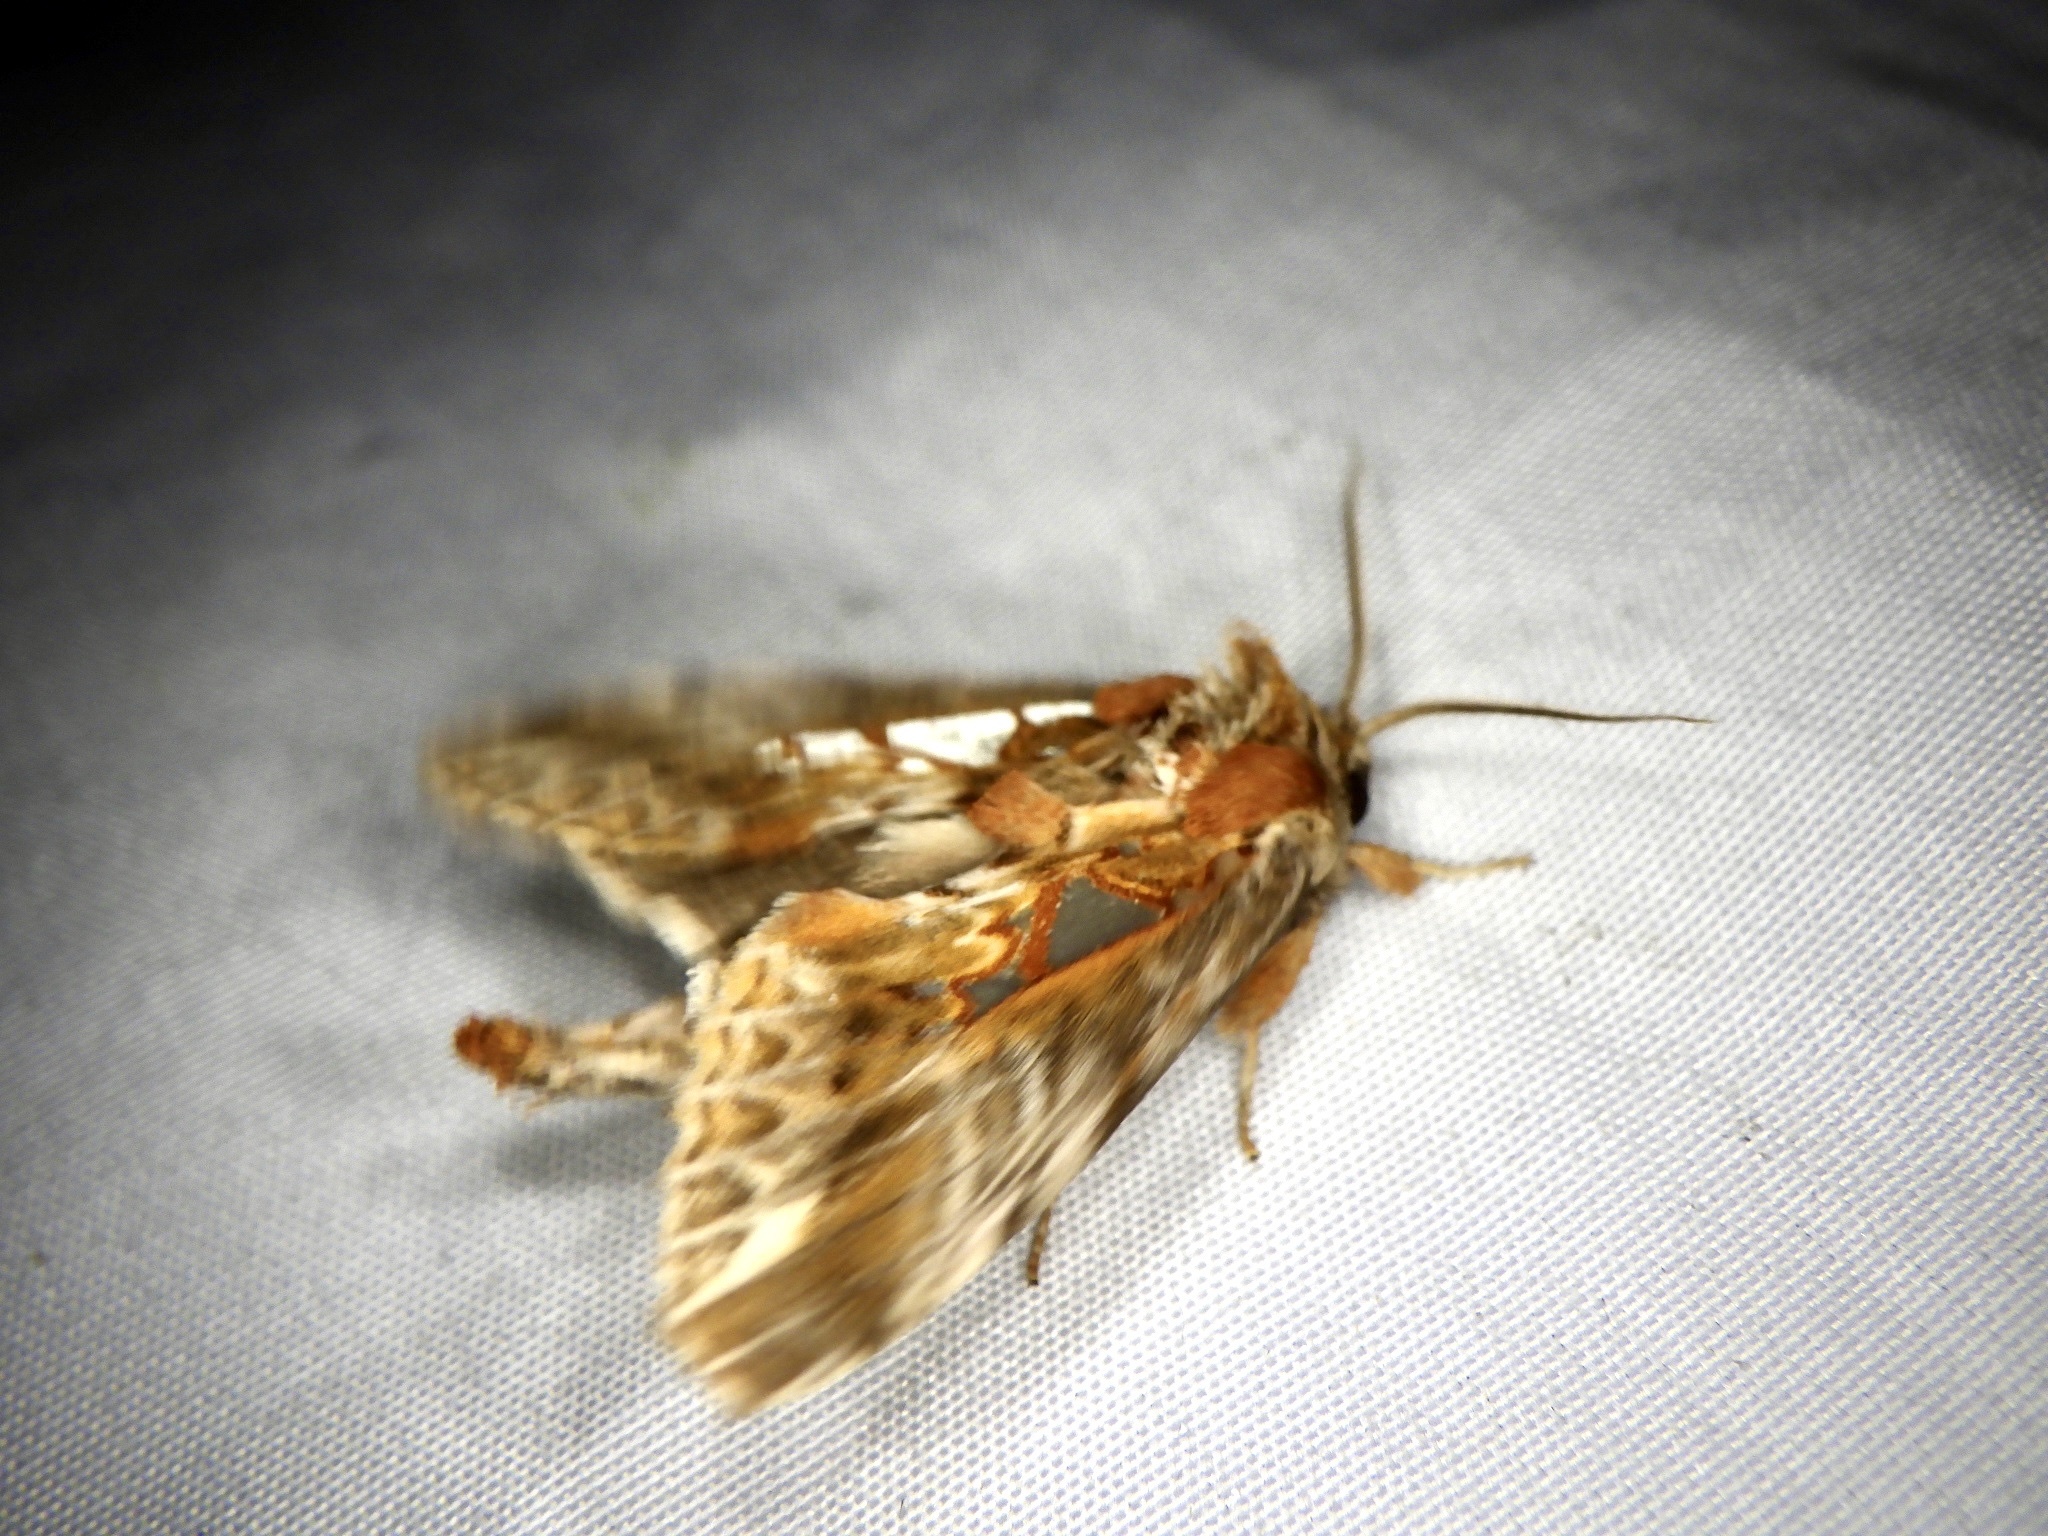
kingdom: Animalia
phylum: Arthropoda
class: Insecta
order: Lepidoptera
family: Notodontidae
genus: Spatalia
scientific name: Spatalia doerriesi
